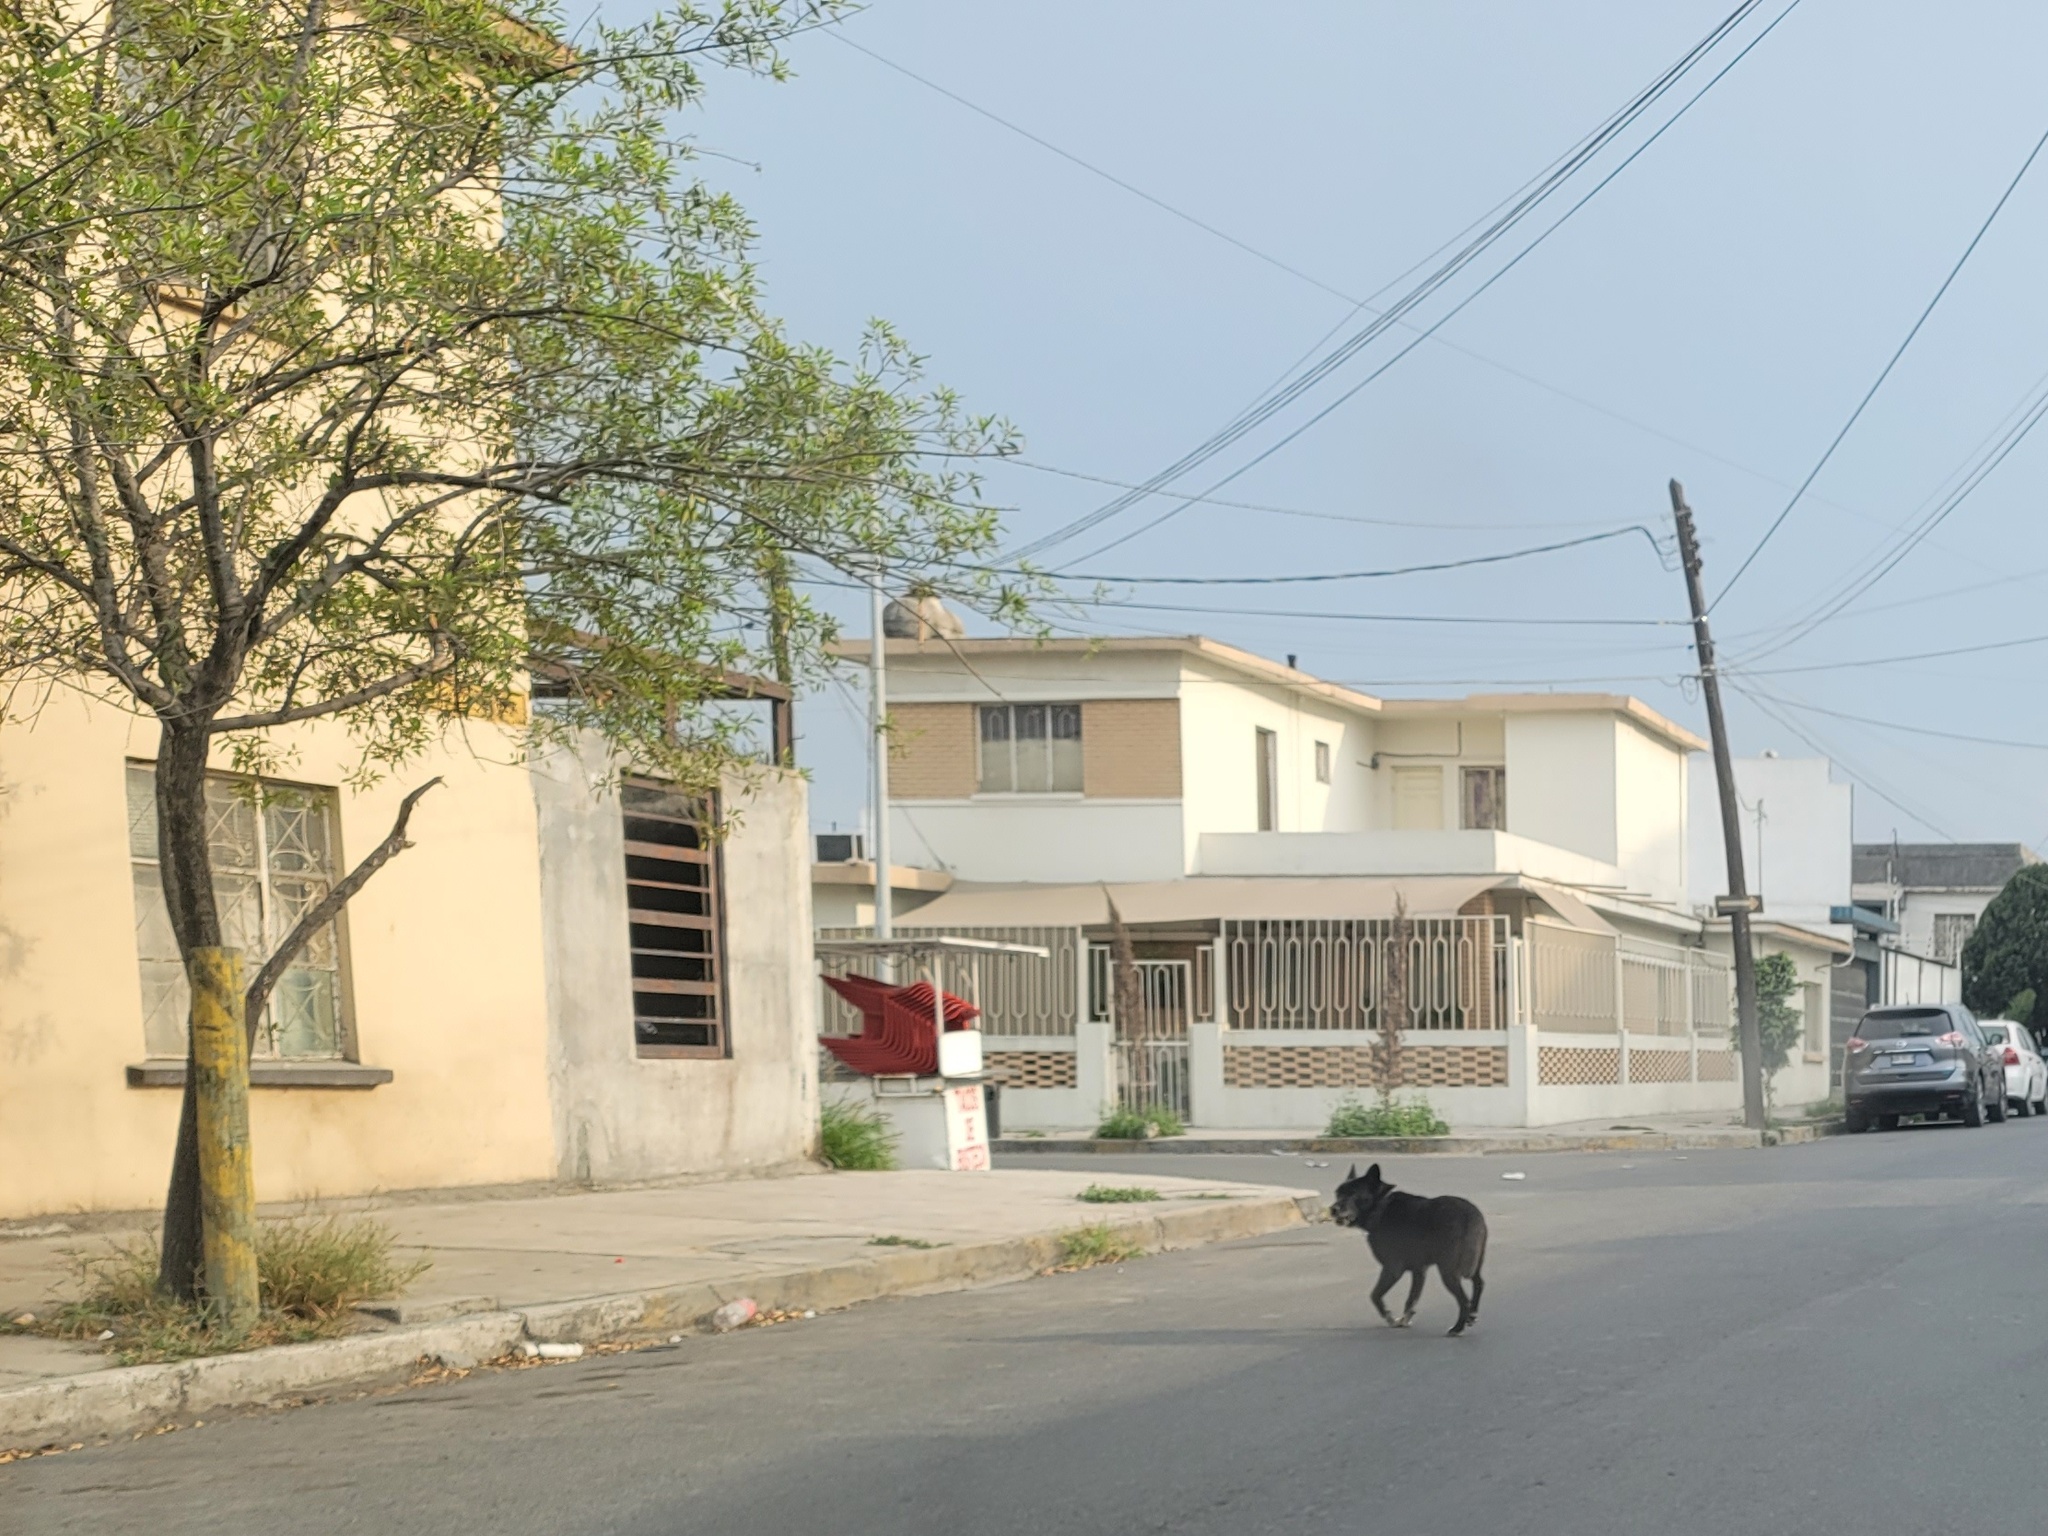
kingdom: Animalia
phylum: Chordata
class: Mammalia
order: Carnivora
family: Canidae
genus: Canis
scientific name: Canis lupus
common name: Gray wolf
